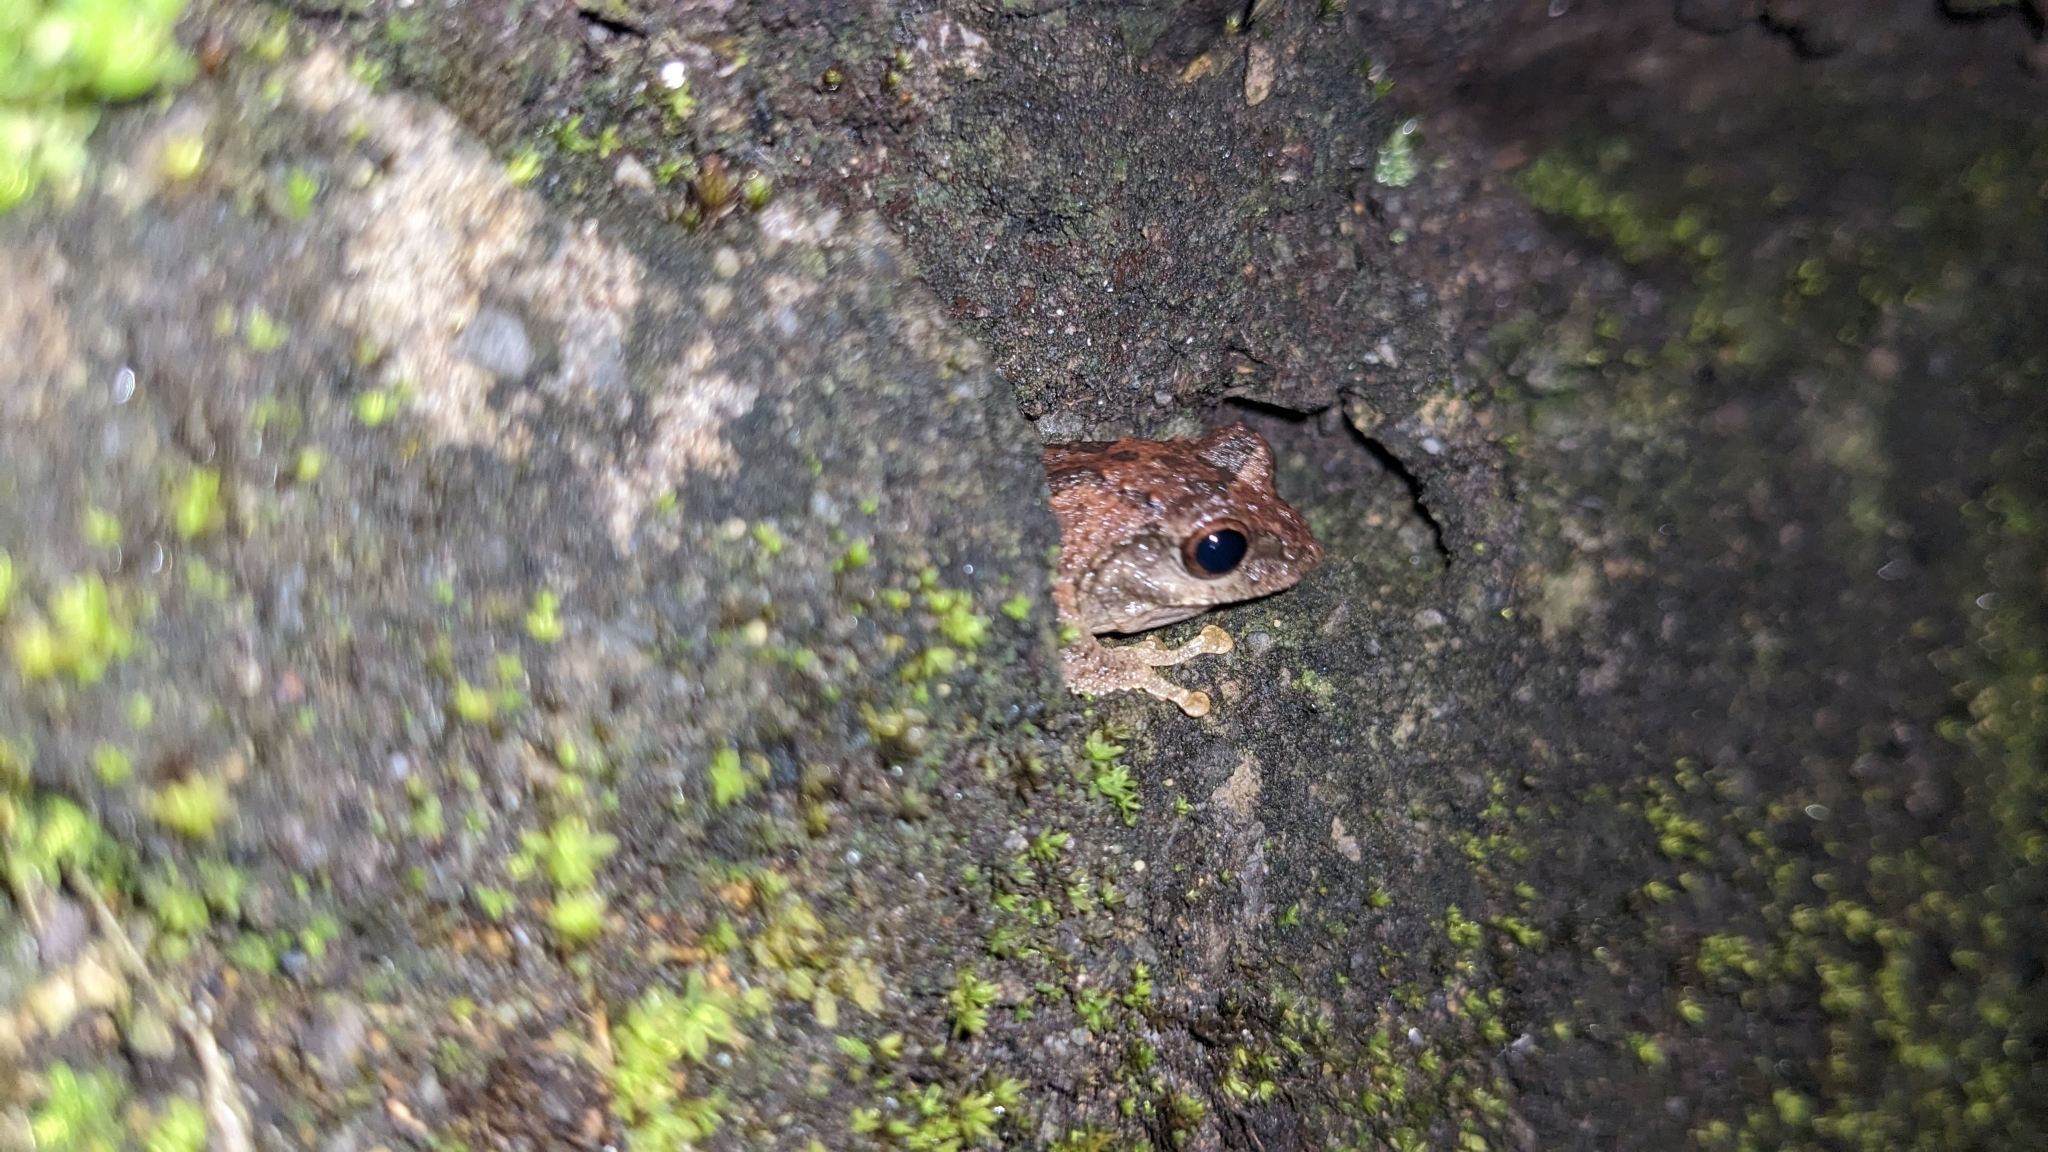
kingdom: Animalia
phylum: Chordata
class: Amphibia
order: Anura
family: Rhacophoridae
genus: Kurixalus
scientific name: Kurixalus idiootocus
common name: Temple treefrog
